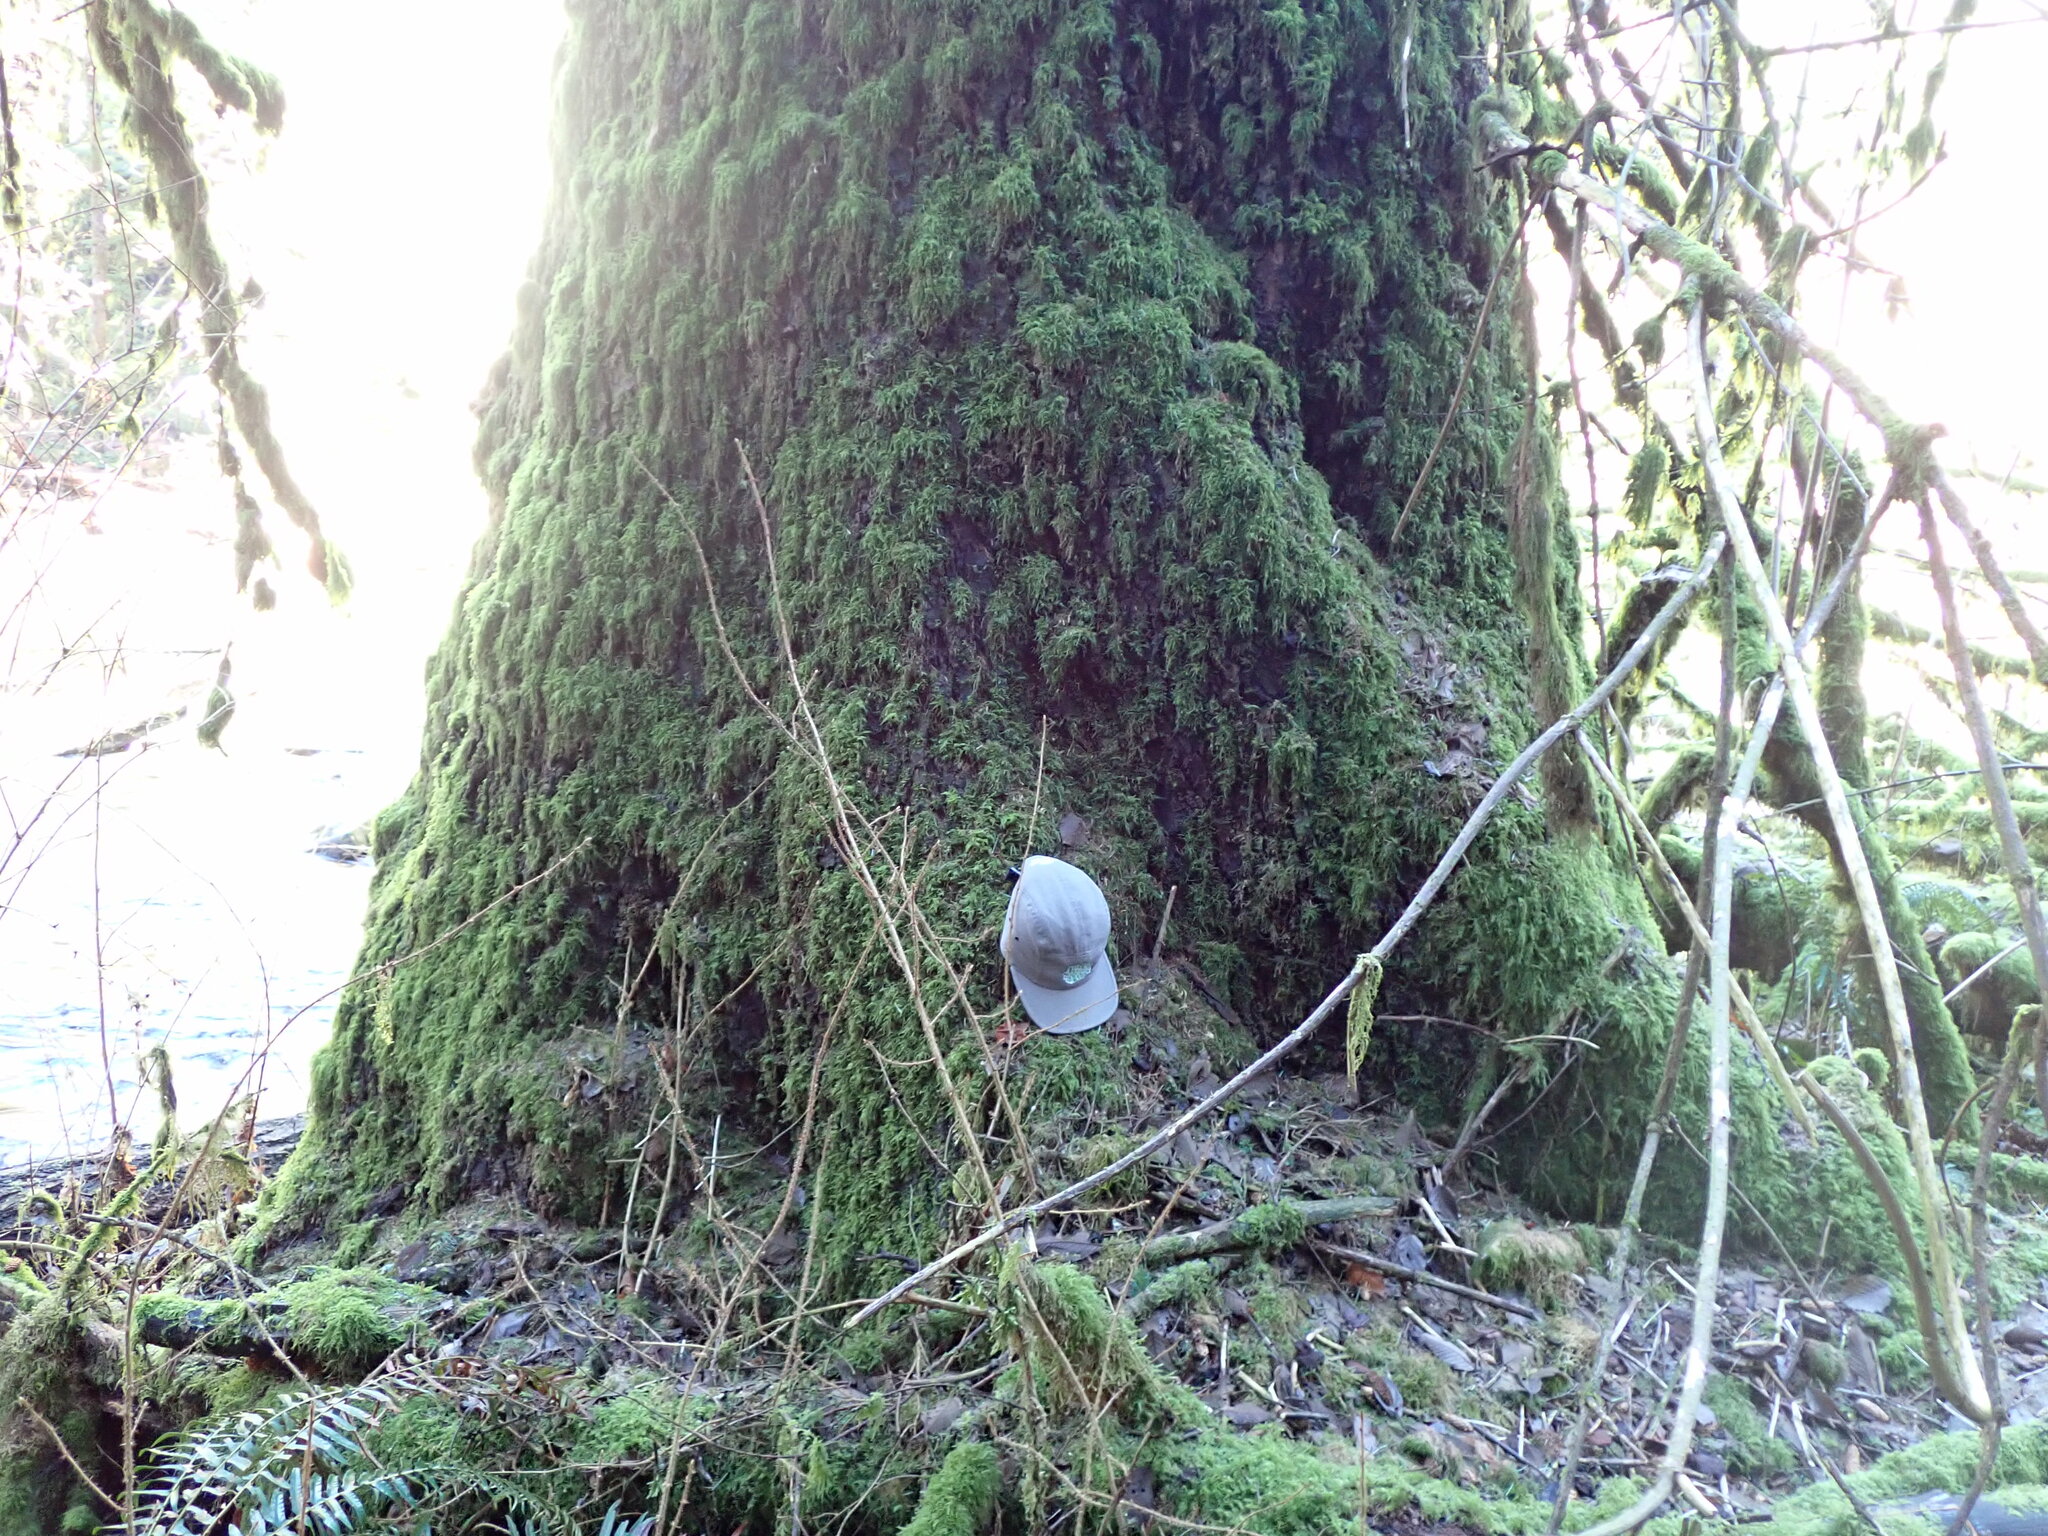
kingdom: Plantae
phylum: Tracheophyta
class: Pinopsida
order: Pinales
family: Pinaceae
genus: Picea
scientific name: Picea sitchensis
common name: Sitka spruce
